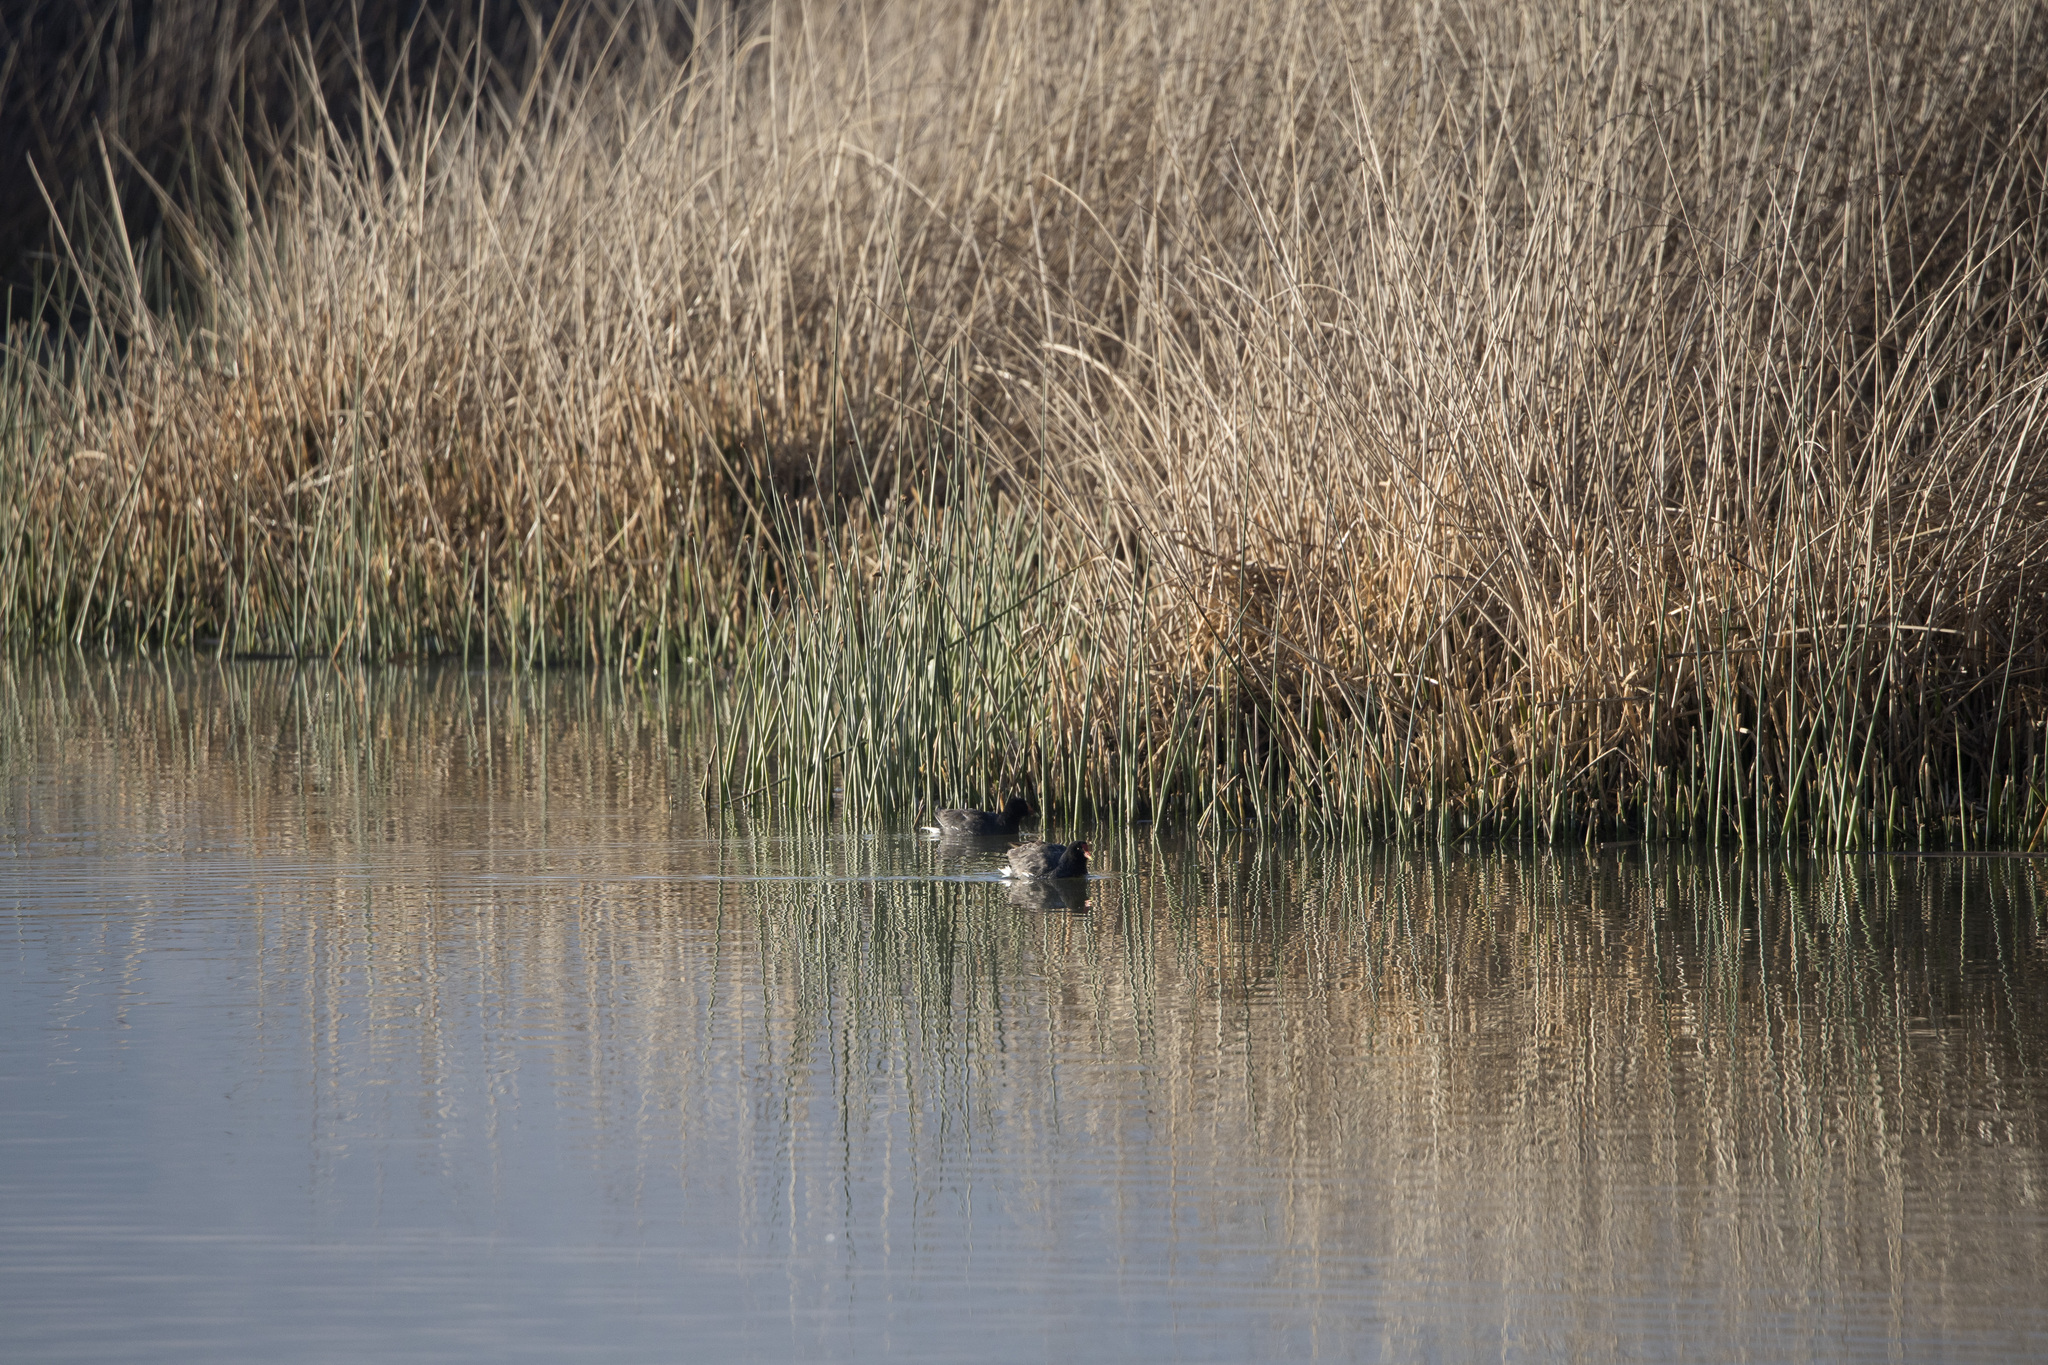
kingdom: Animalia
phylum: Chordata
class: Aves
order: Gruiformes
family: Rallidae
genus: Gallinula
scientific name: Gallinula chloropus
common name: Common moorhen
